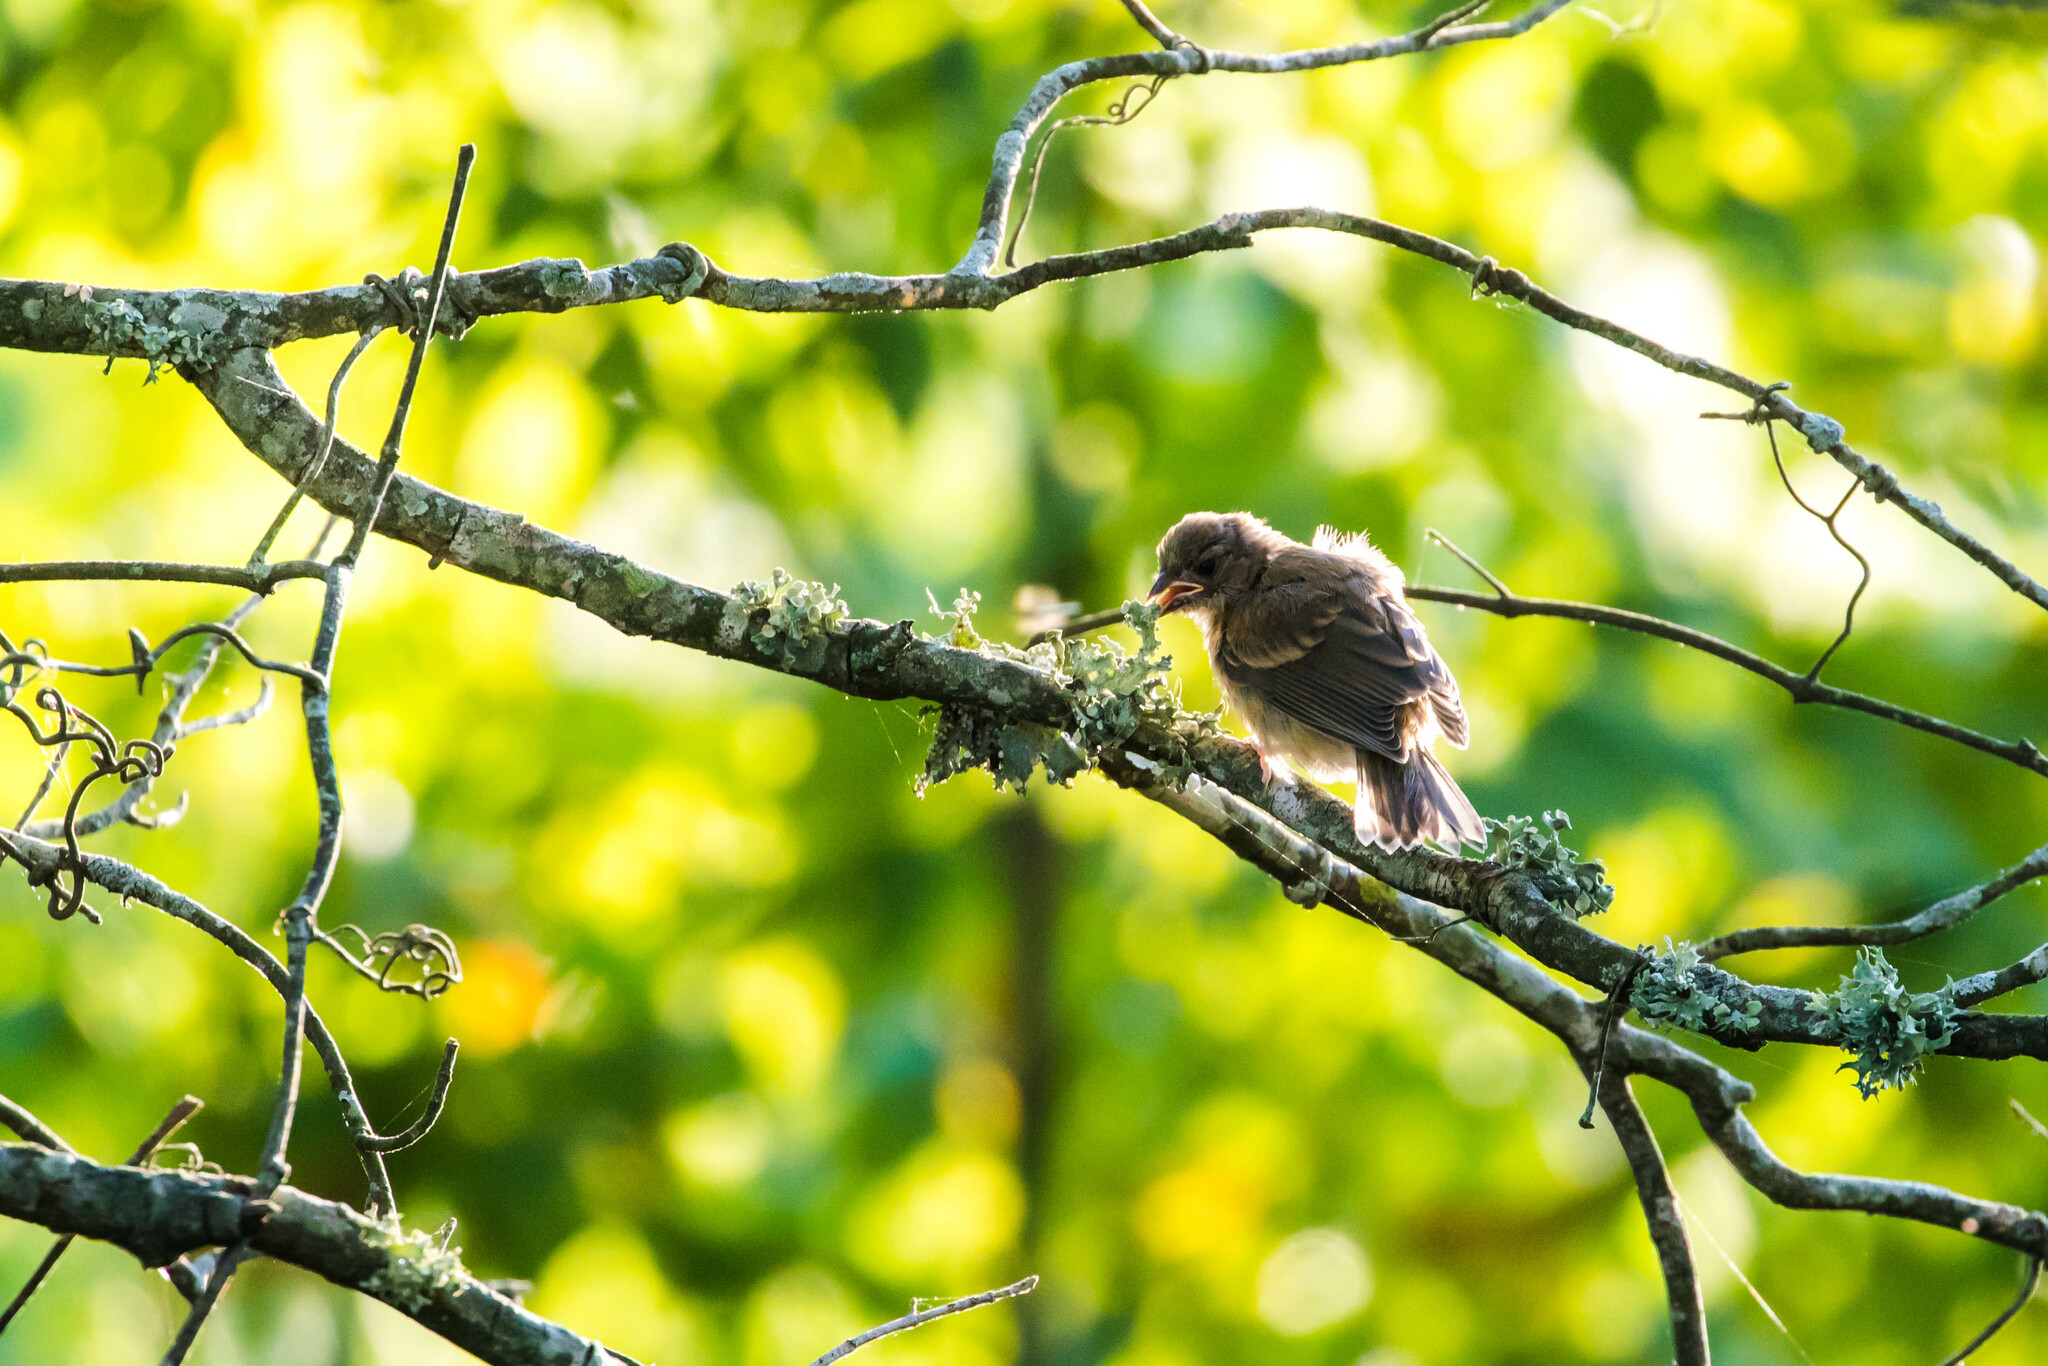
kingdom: Animalia
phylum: Chordata
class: Aves
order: Passeriformes
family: Cardinalidae
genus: Passerina
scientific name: Passerina cyanea
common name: Indigo bunting
